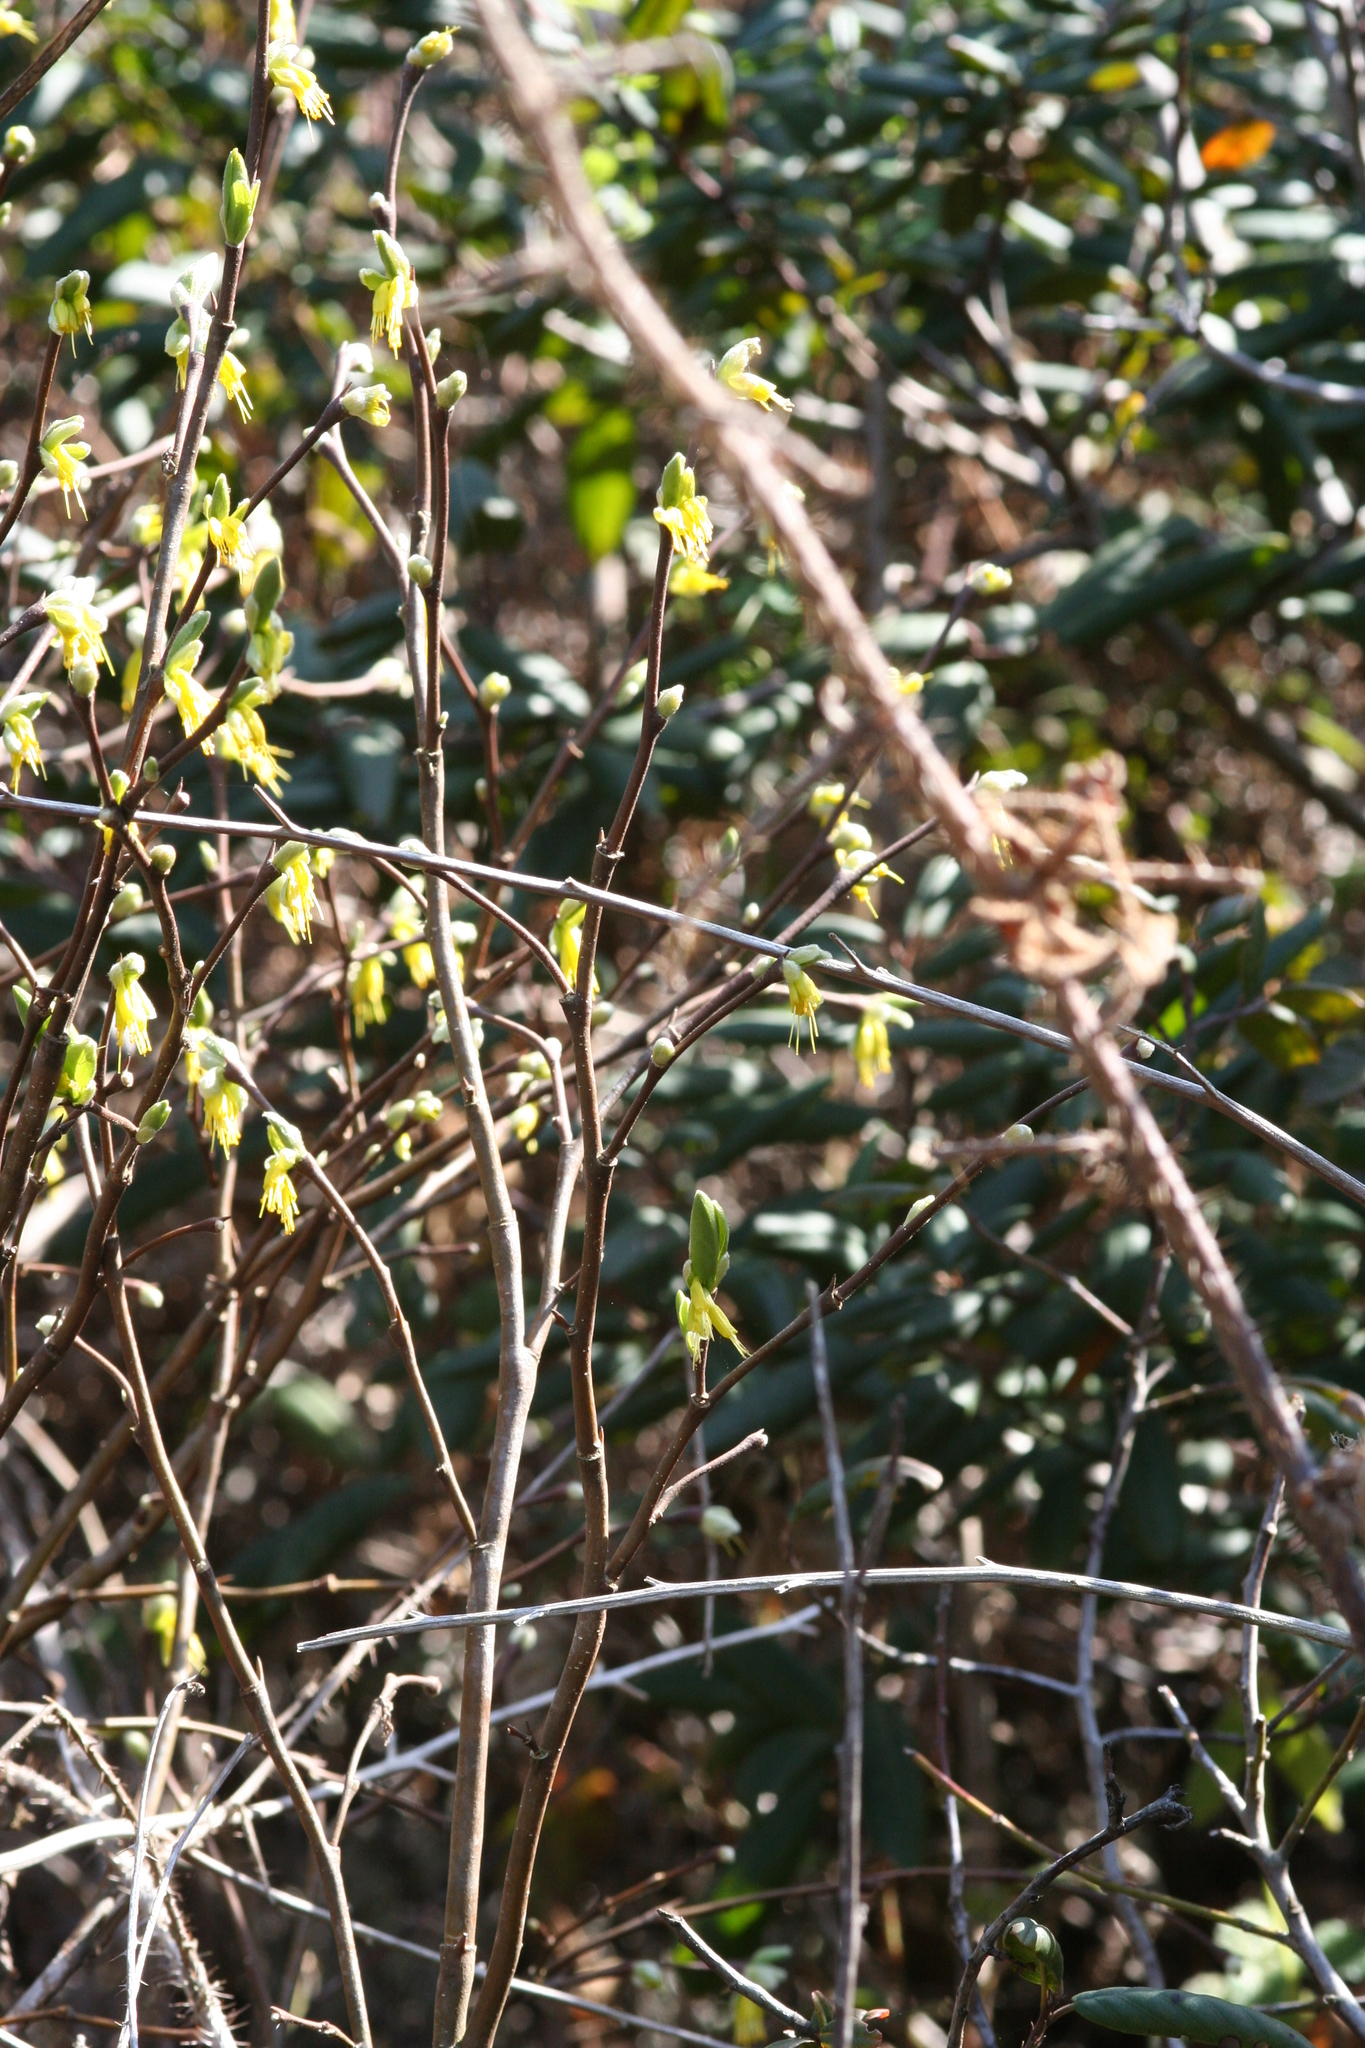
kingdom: Plantae
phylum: Tracheophyta
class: Magnoliopsida
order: Malvales
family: Thymelaeaceae
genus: Dirca
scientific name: Dirca occidentalis
